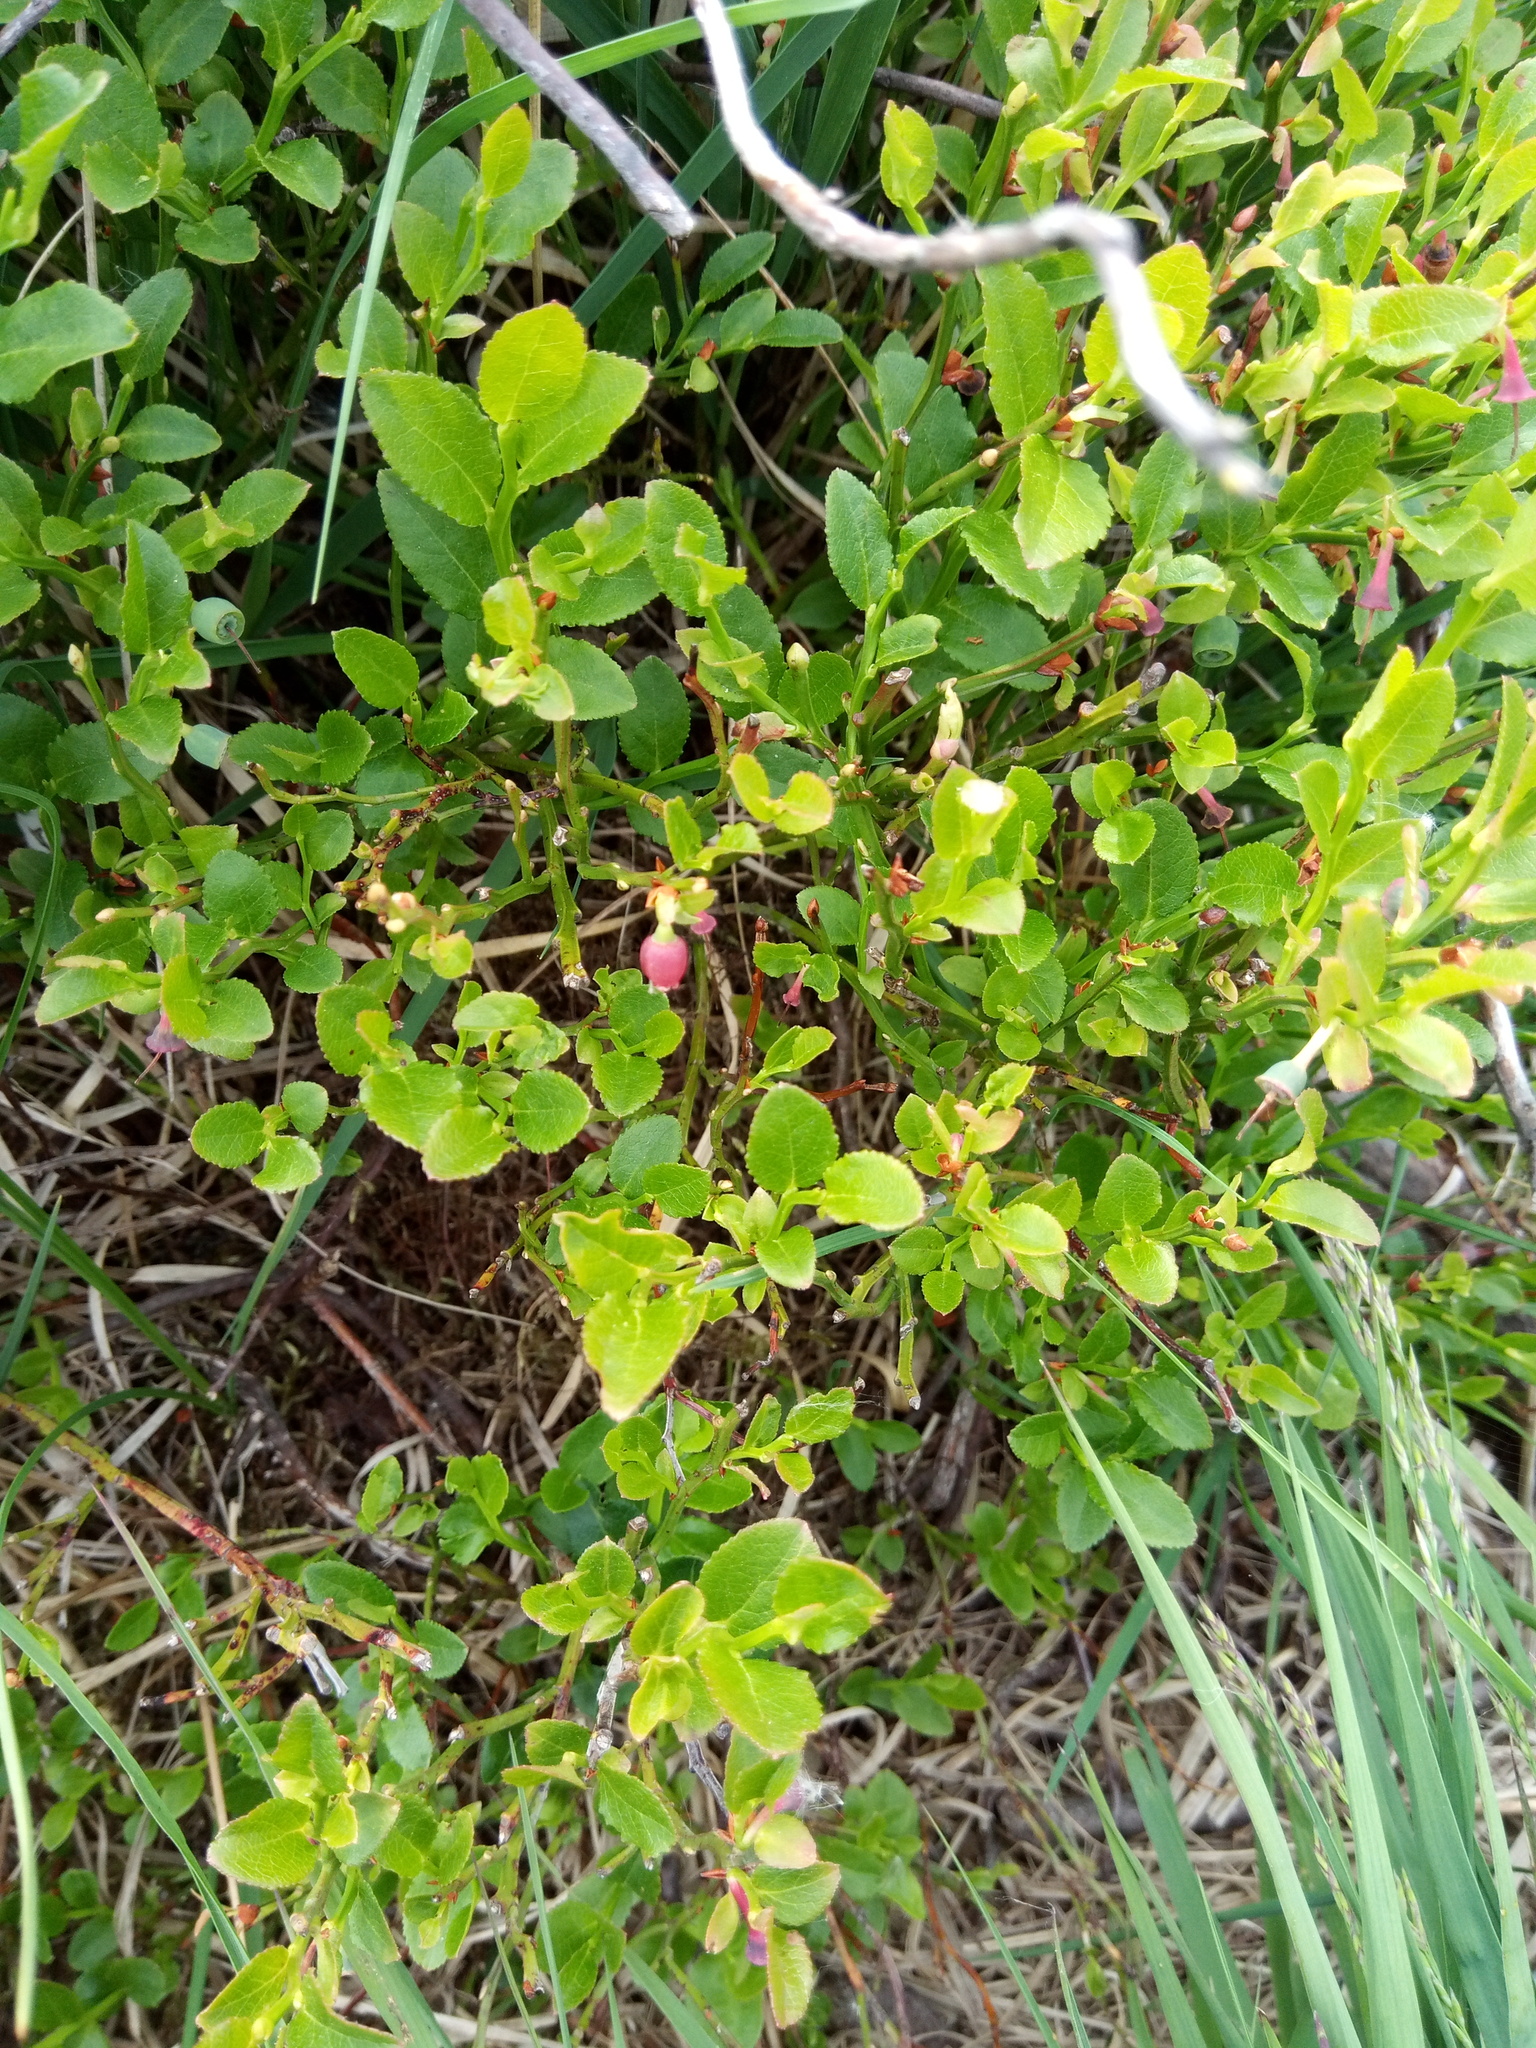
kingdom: Plantae
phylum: Tracheophyta
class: Magnoliopsida
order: Ericales
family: Ericaceae
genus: Vaccinium
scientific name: Vaccinium myrtillus
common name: Bilberry
